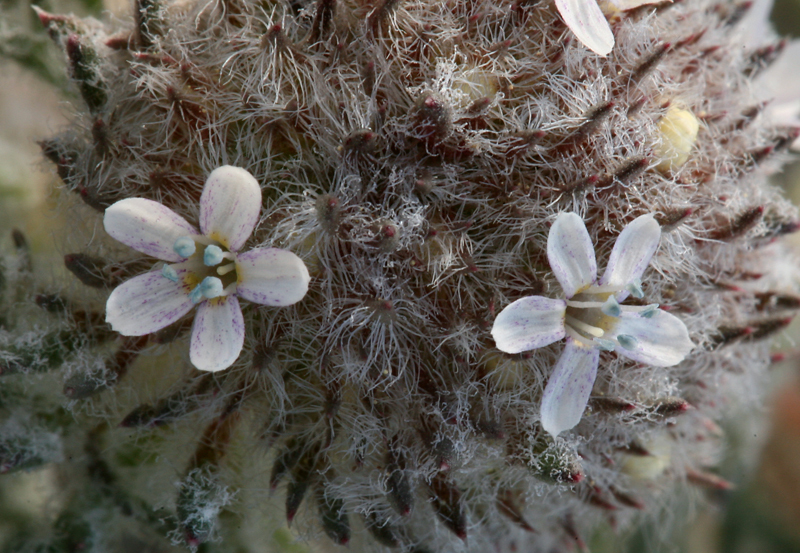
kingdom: Plantae
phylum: Tracheophyta
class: Magnoliopsida
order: Ericales
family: Polemoniaceae
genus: Ipomopsis
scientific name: Ipomopsis congesta
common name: Ball-head gilia
